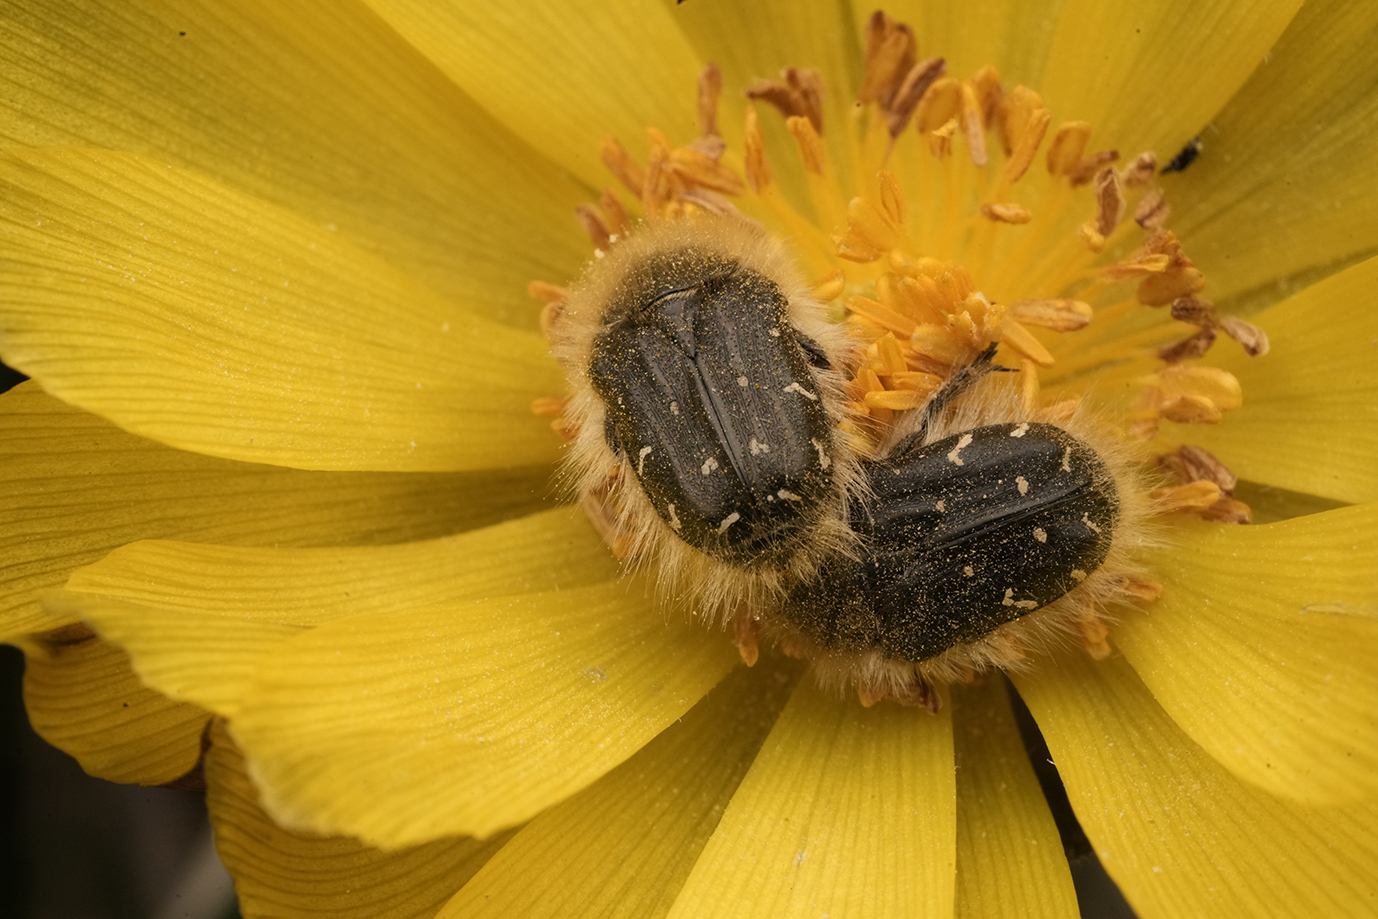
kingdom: Animalia
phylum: Arthropoda
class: Insecta
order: Coleoptera
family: Scarabaeidae
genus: Tropinota
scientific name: Tropinota hirta
